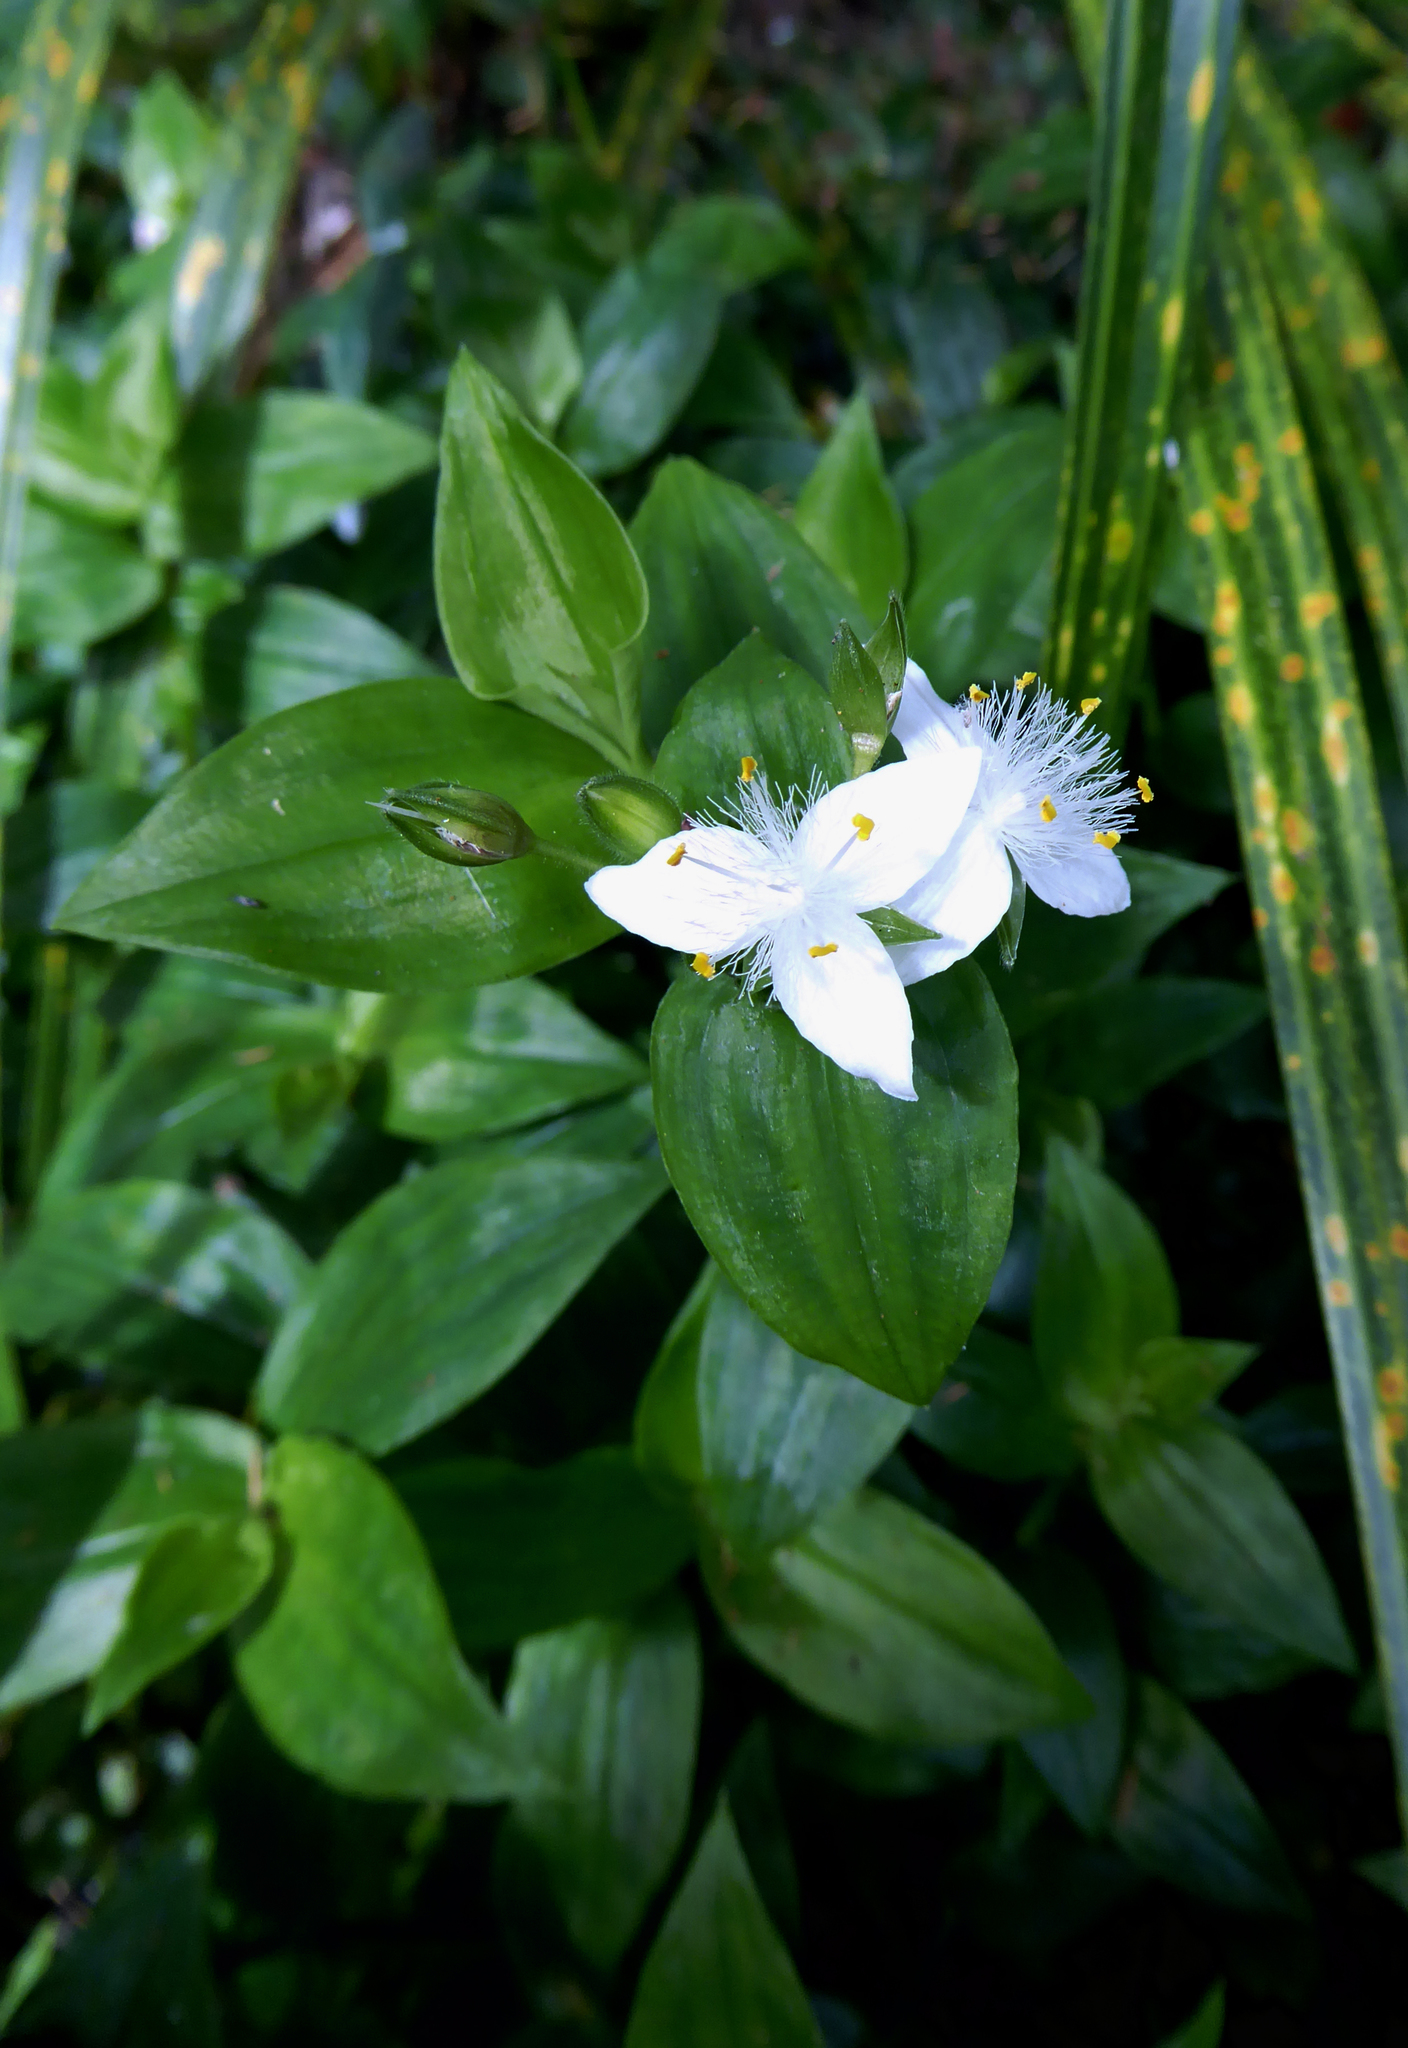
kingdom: Plantae
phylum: Tracheophyta
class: Liliopsida
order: Commelinales
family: Commelinaceae
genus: Tradescantia
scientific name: Tradescantia fluminensis
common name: Wandering-jew
